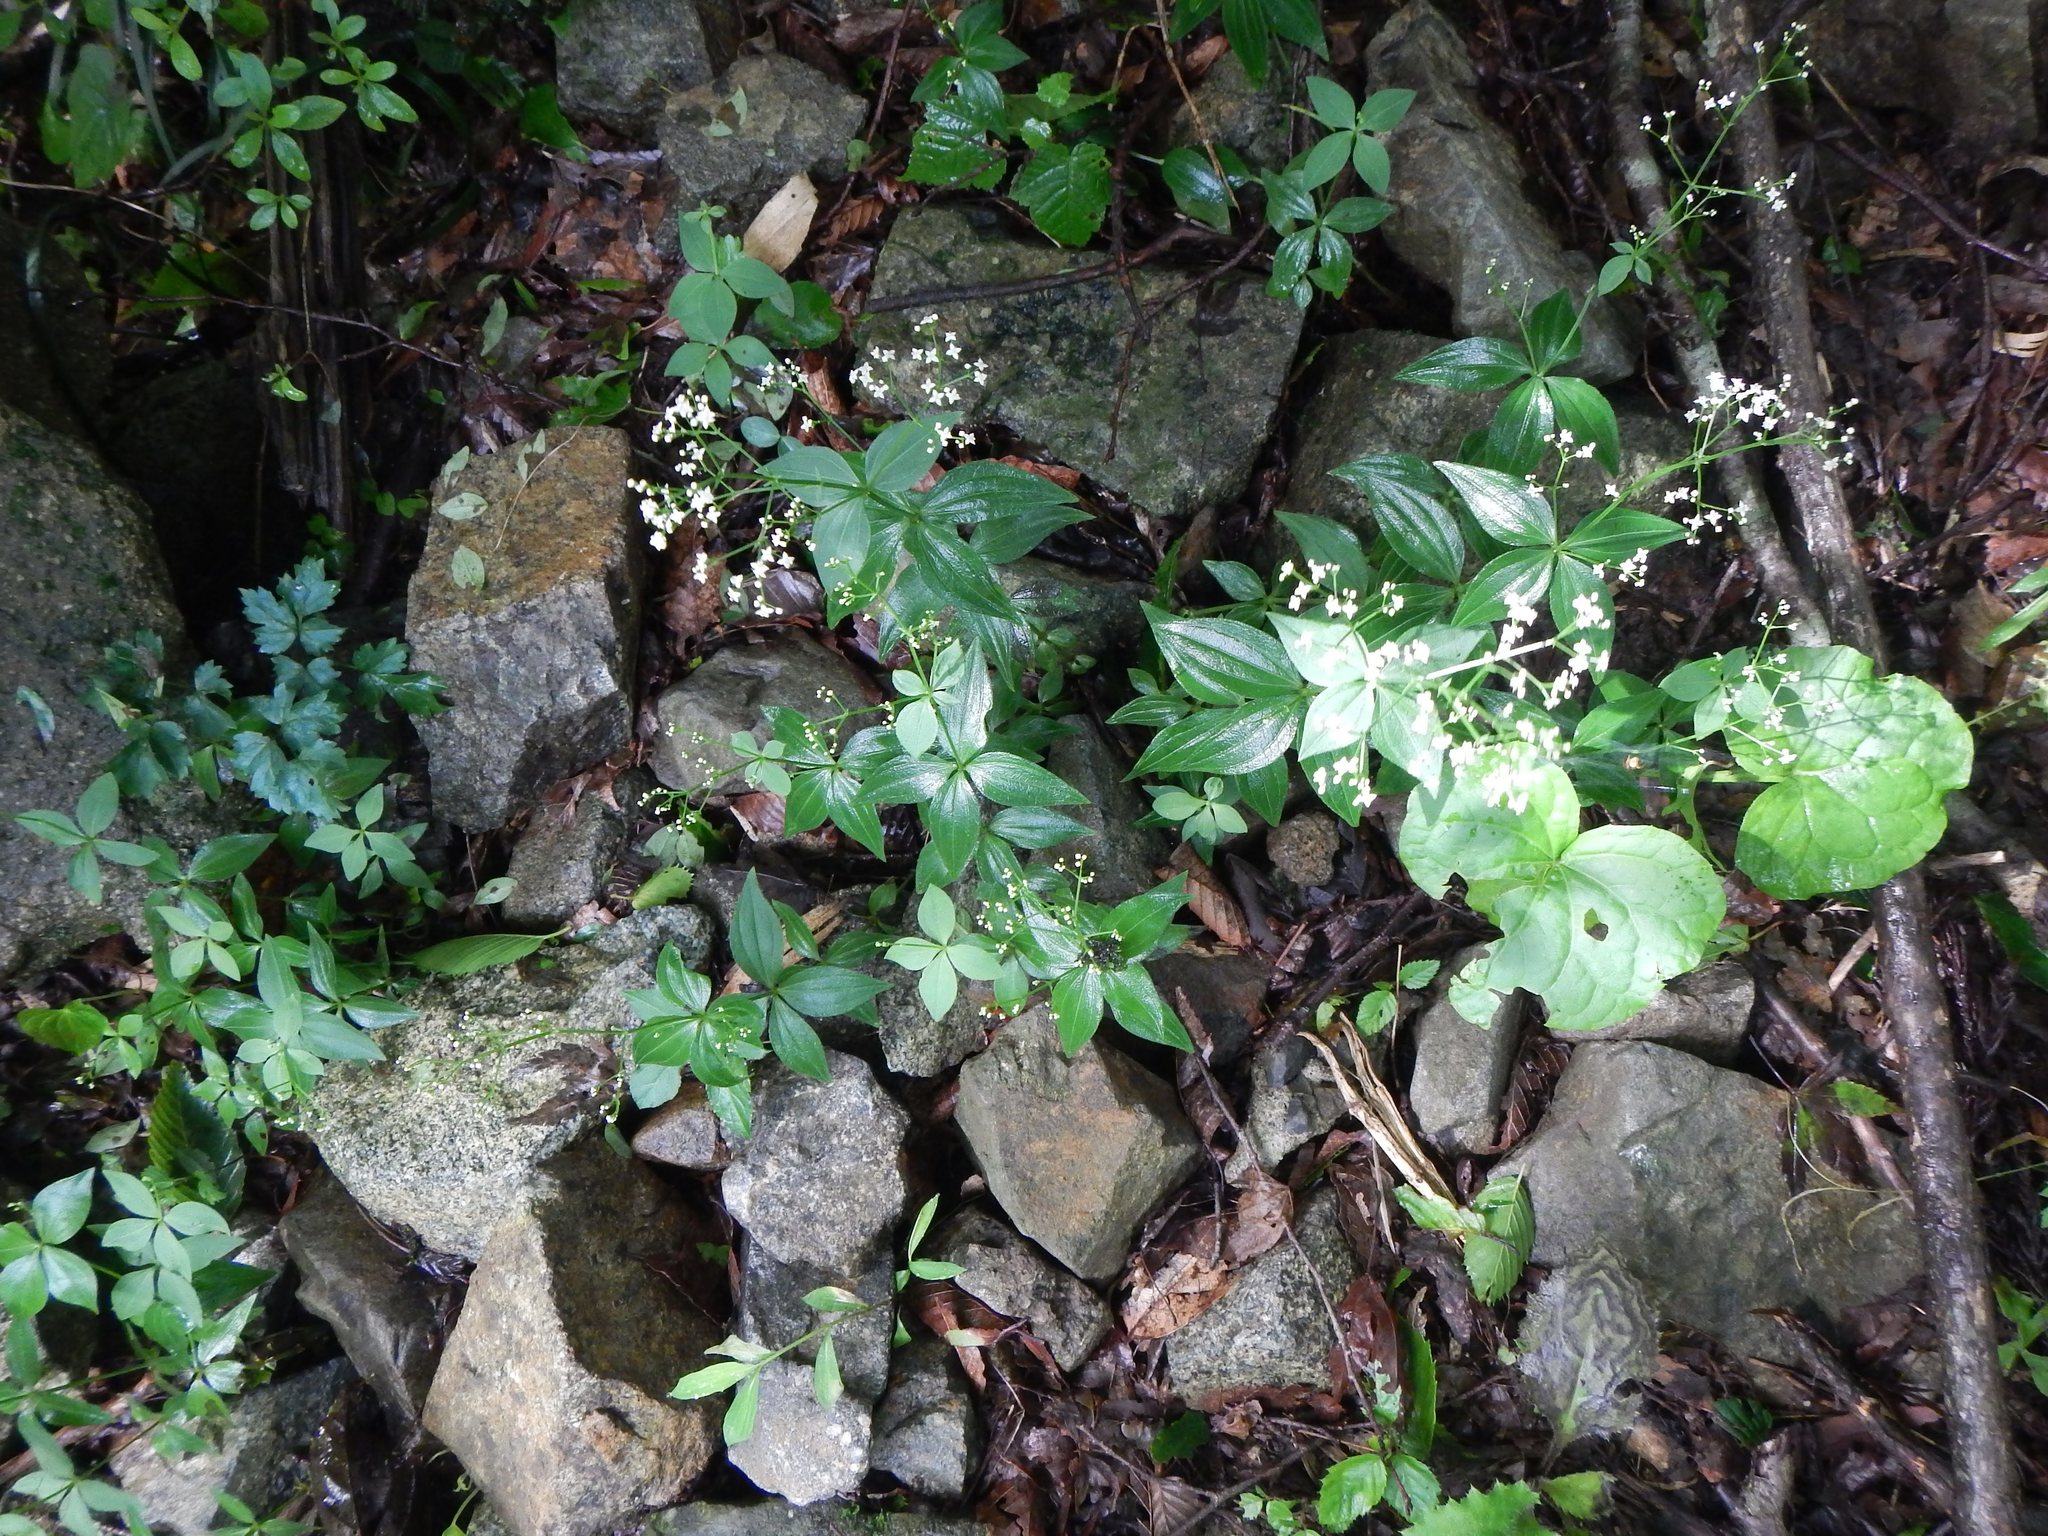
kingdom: Plantae
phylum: Tracheophyta
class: Magnoliopsida
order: Gentianales
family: Rubiaceae
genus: Galium
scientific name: Galium kinuta
